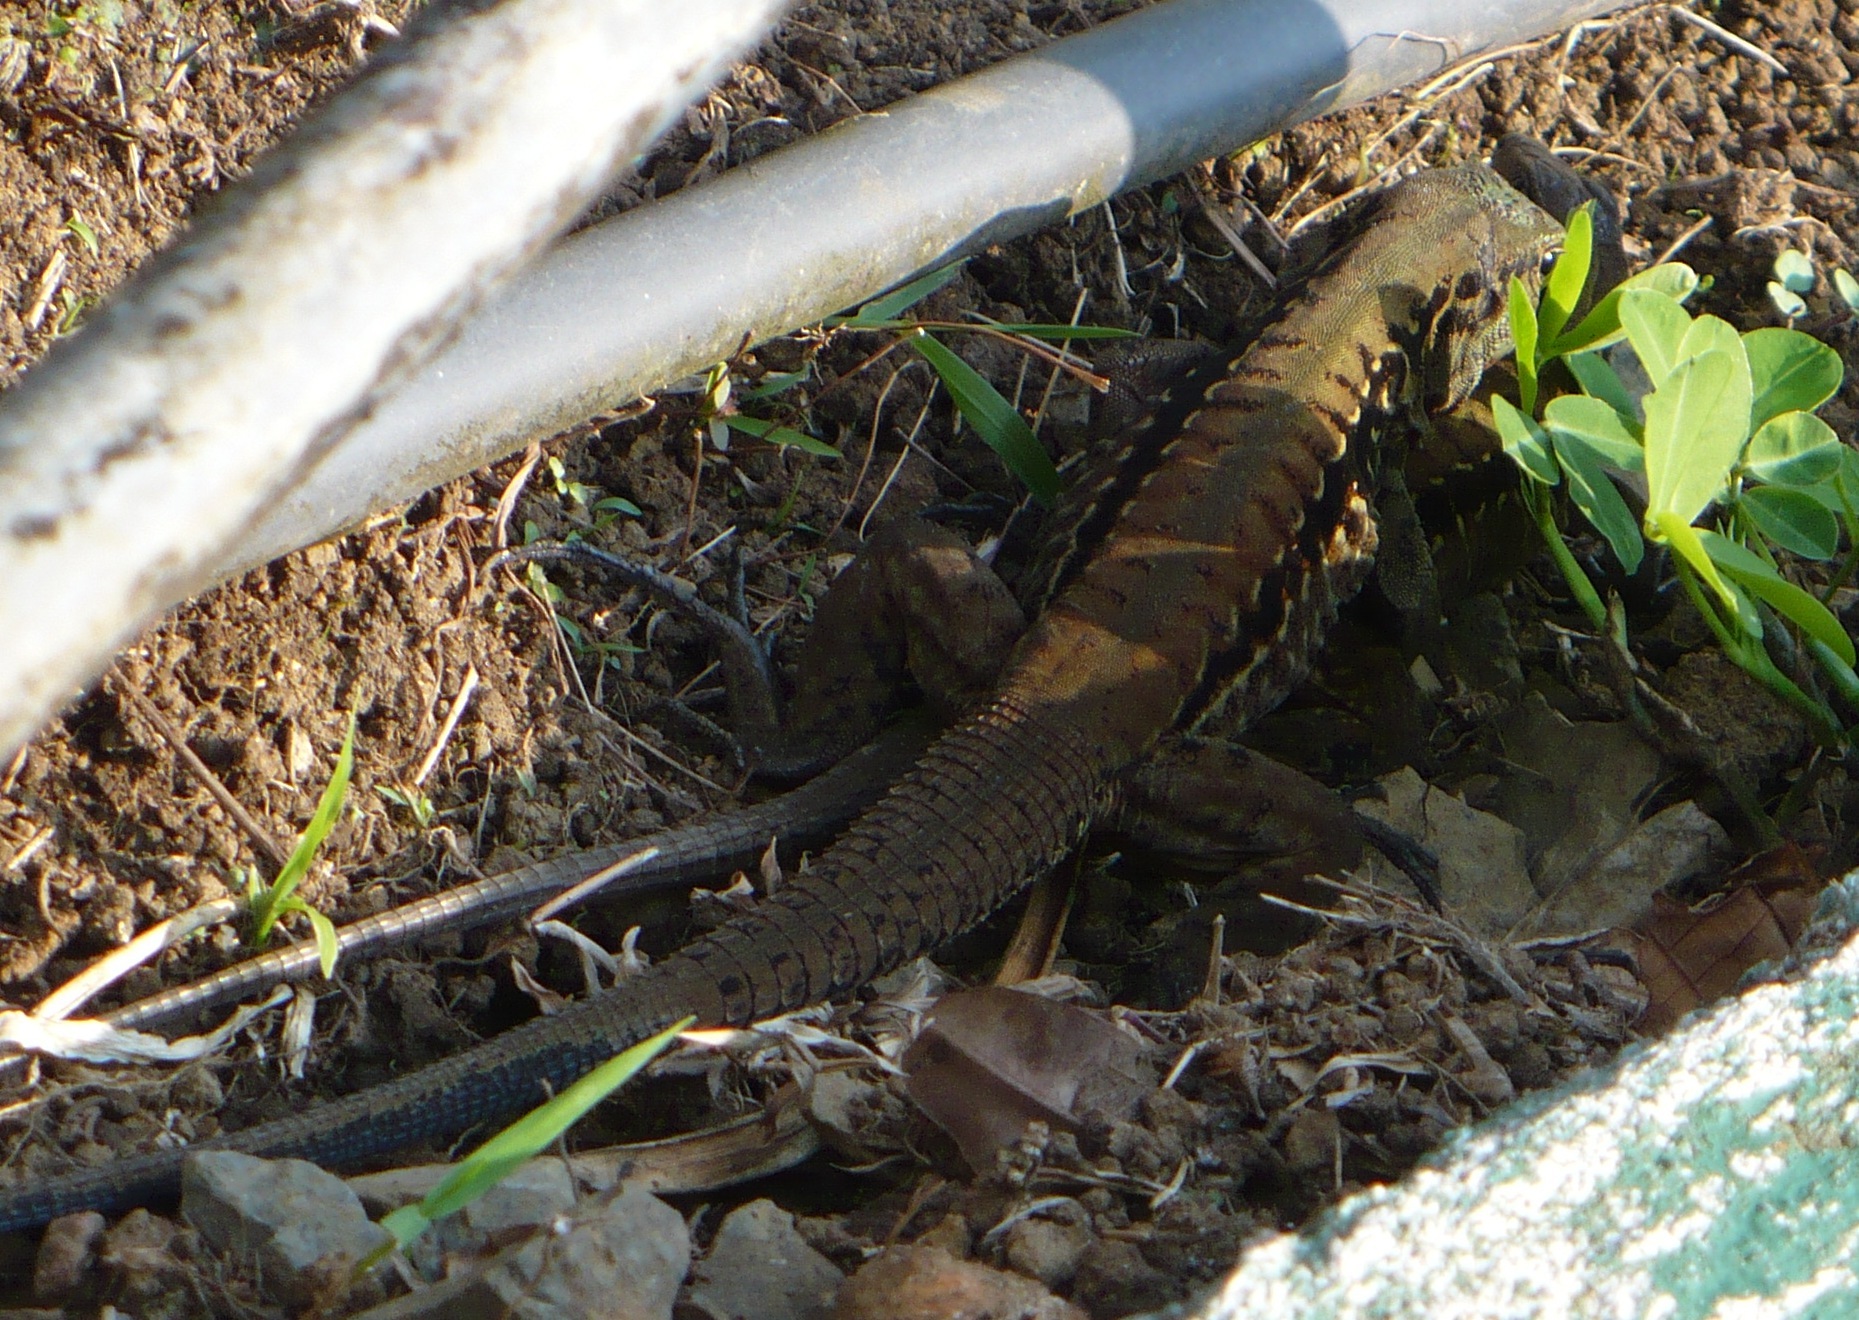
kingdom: Animalia
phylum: Chordata
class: Squamata
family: Teiidae
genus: Holcosus
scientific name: Holcosus festivus
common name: Middle american ameiva
